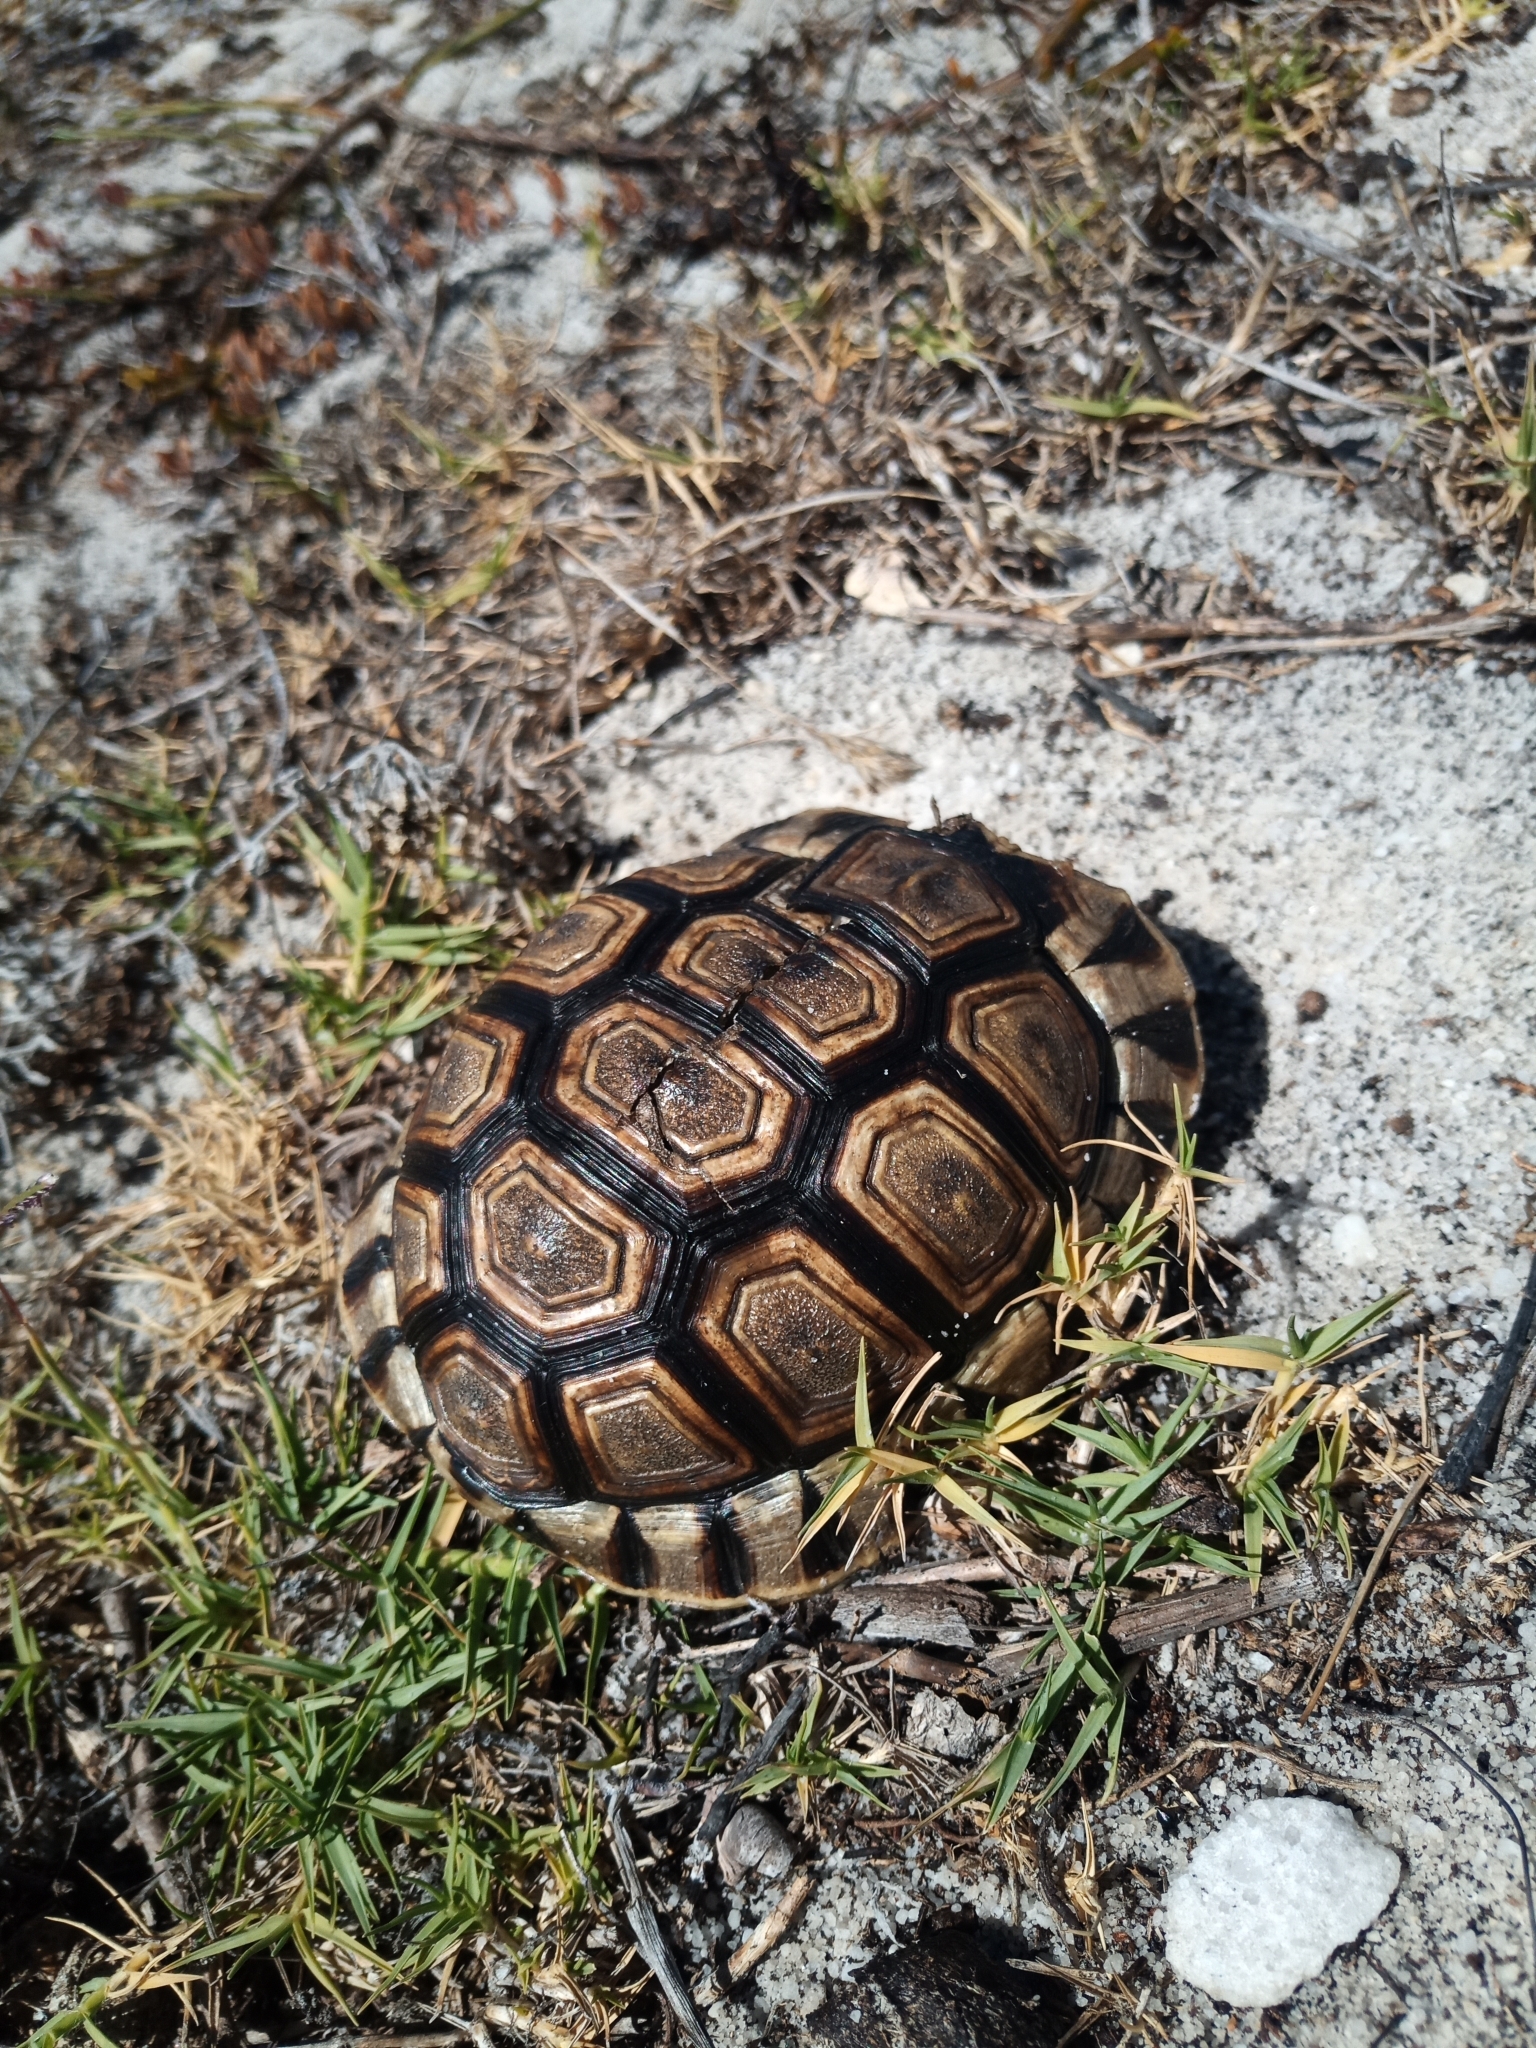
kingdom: Animalia
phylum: Chordata
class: Testudines
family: Testudinidae
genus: Chersina
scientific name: Chersina angulata
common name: South african bowsprit tortoise
